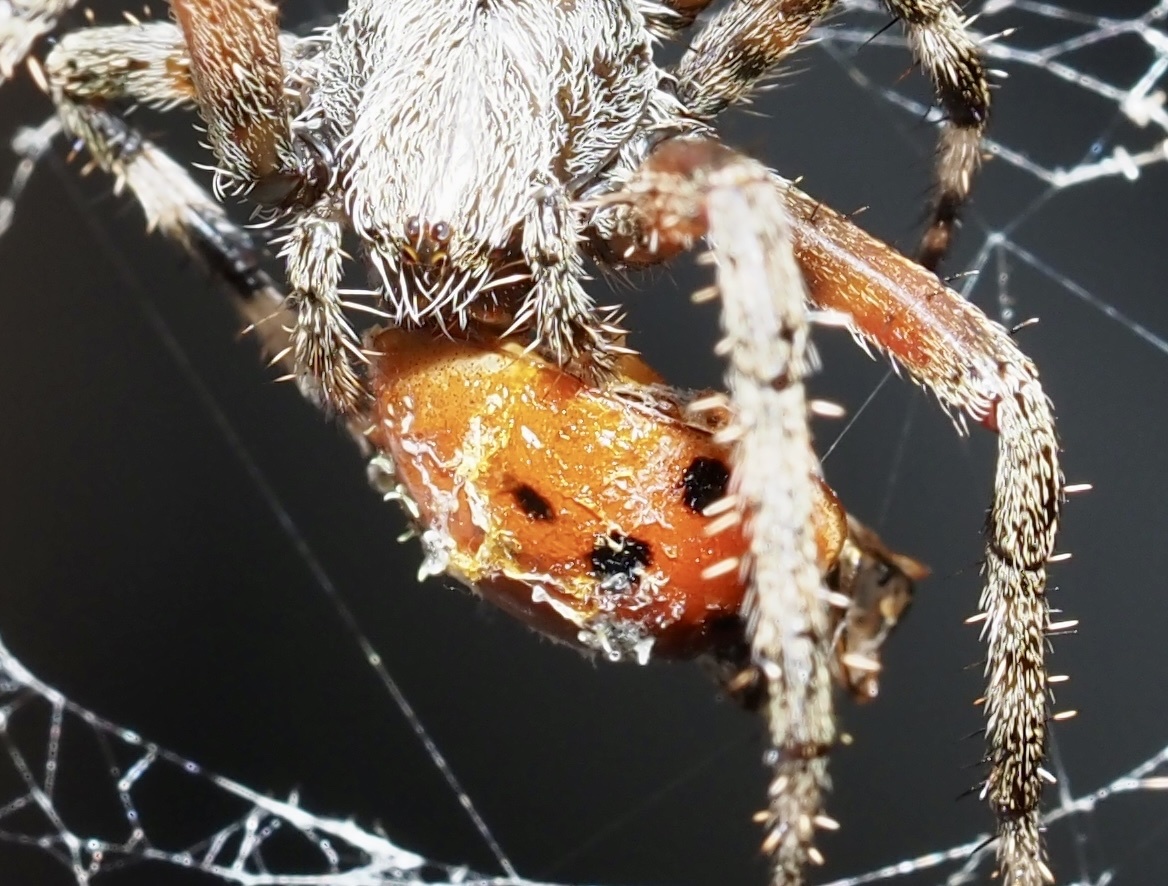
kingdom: Animalia
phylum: Arthropoda
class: Insecta
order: Coleoptera
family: Coccinellidae
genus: Harmonia
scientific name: Harmonia axyridis
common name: Harlequin ladybird
